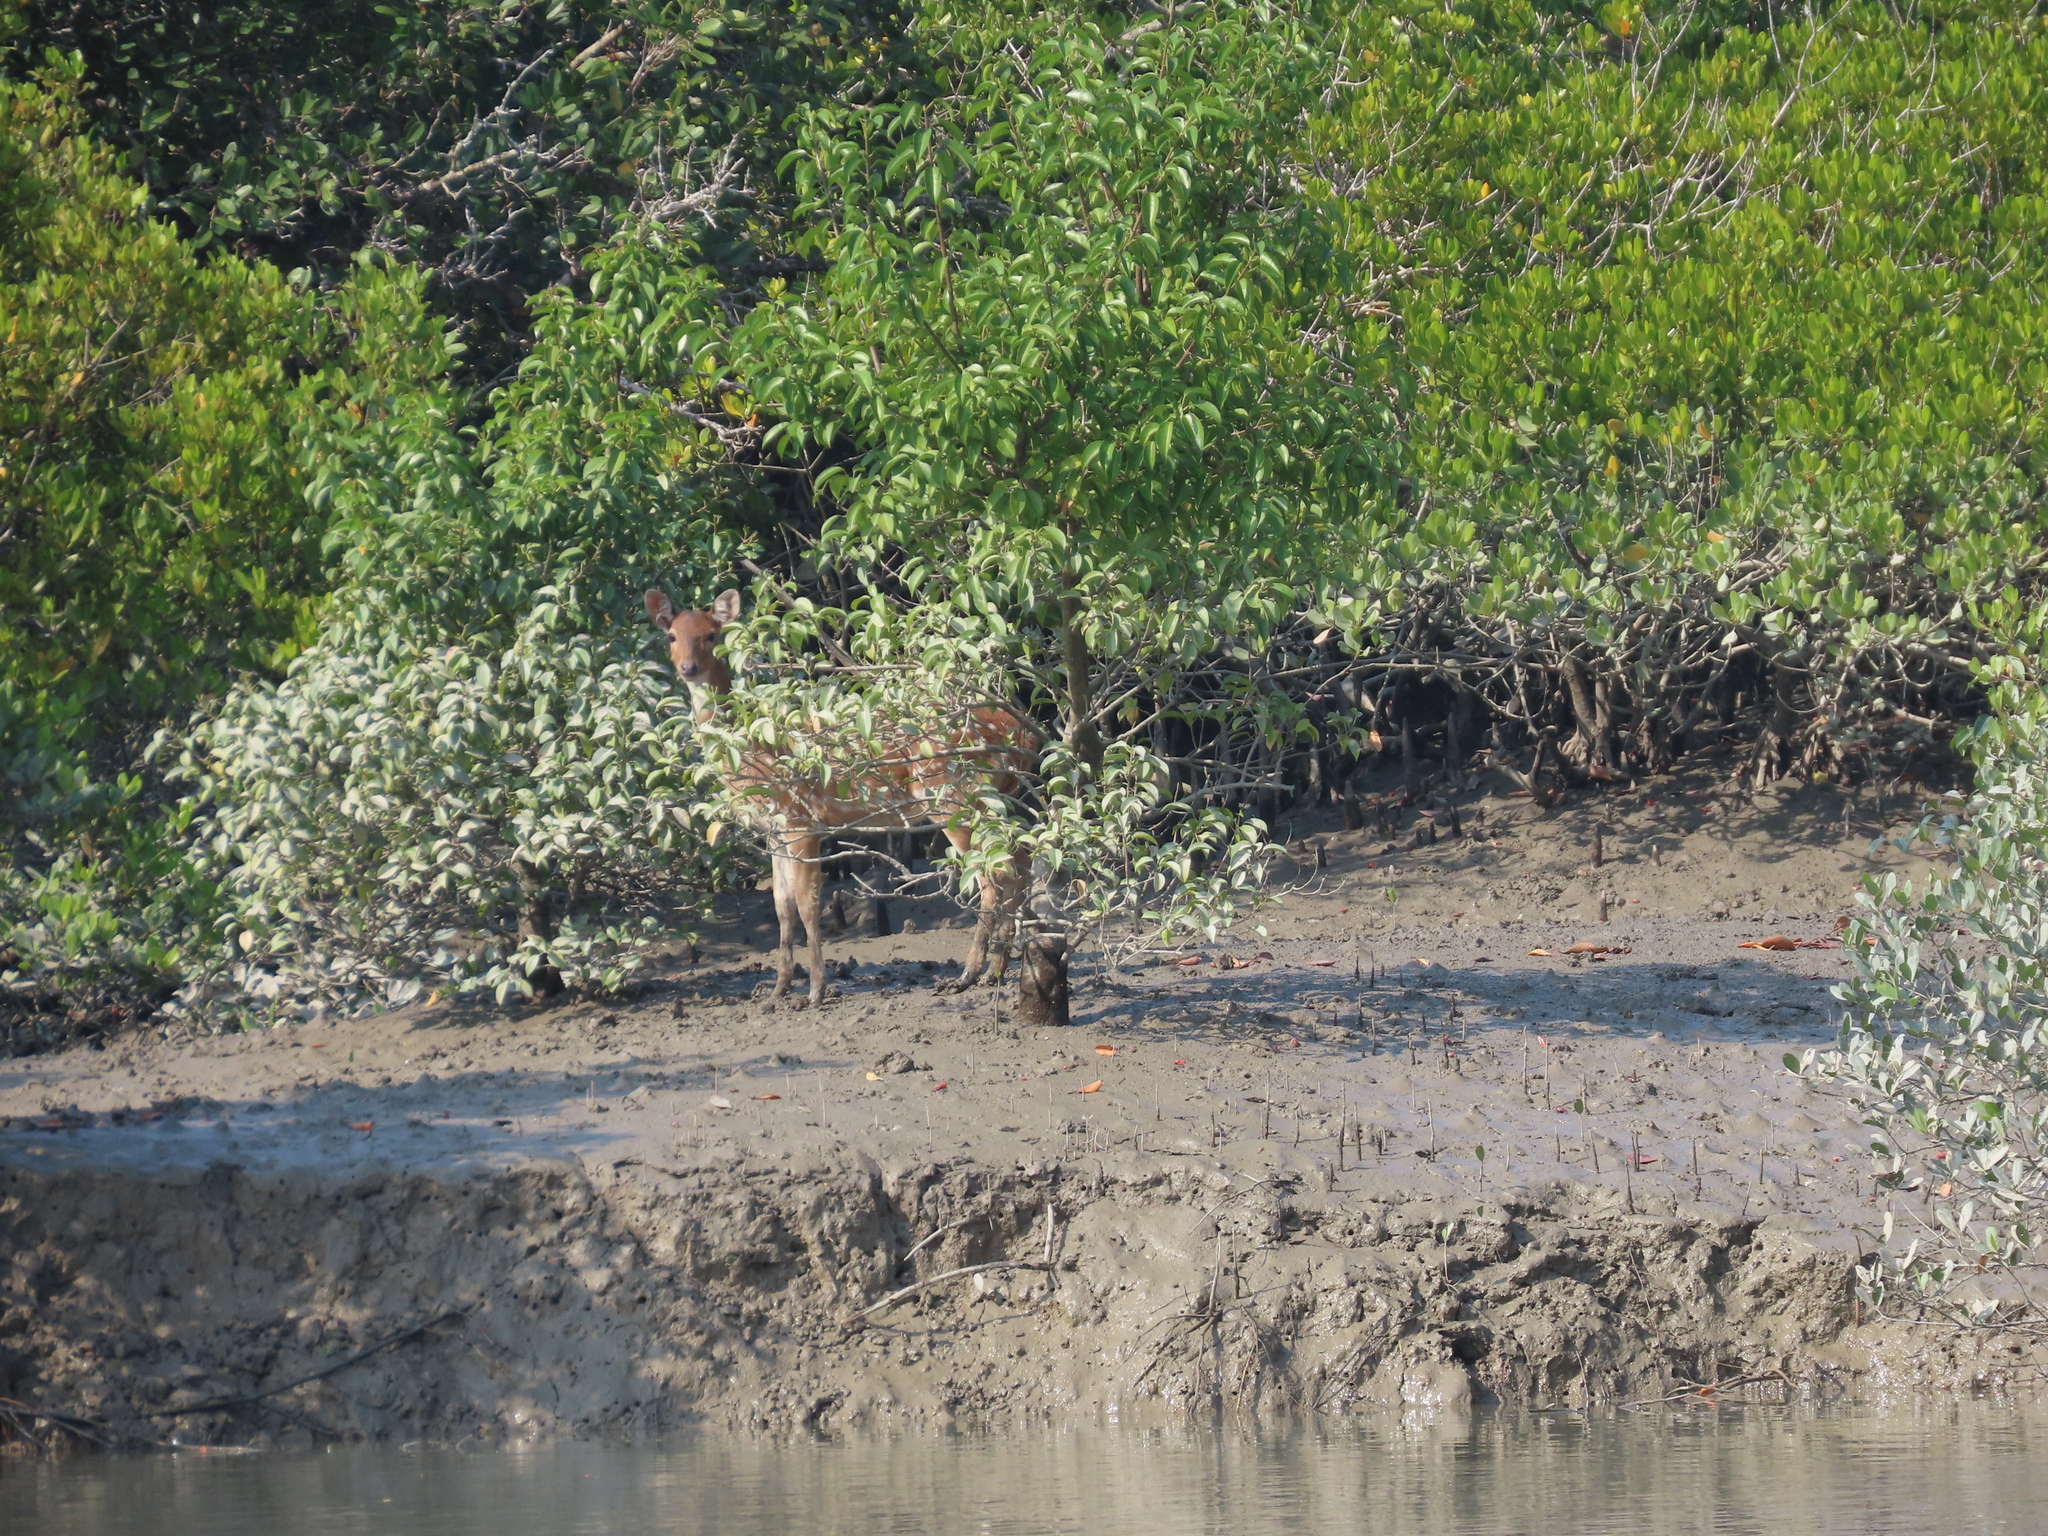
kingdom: Animalia
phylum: Chordata
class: Mammalia
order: Artiodactyla
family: Cervidae
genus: Axis
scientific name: Axis axis
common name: Chital
